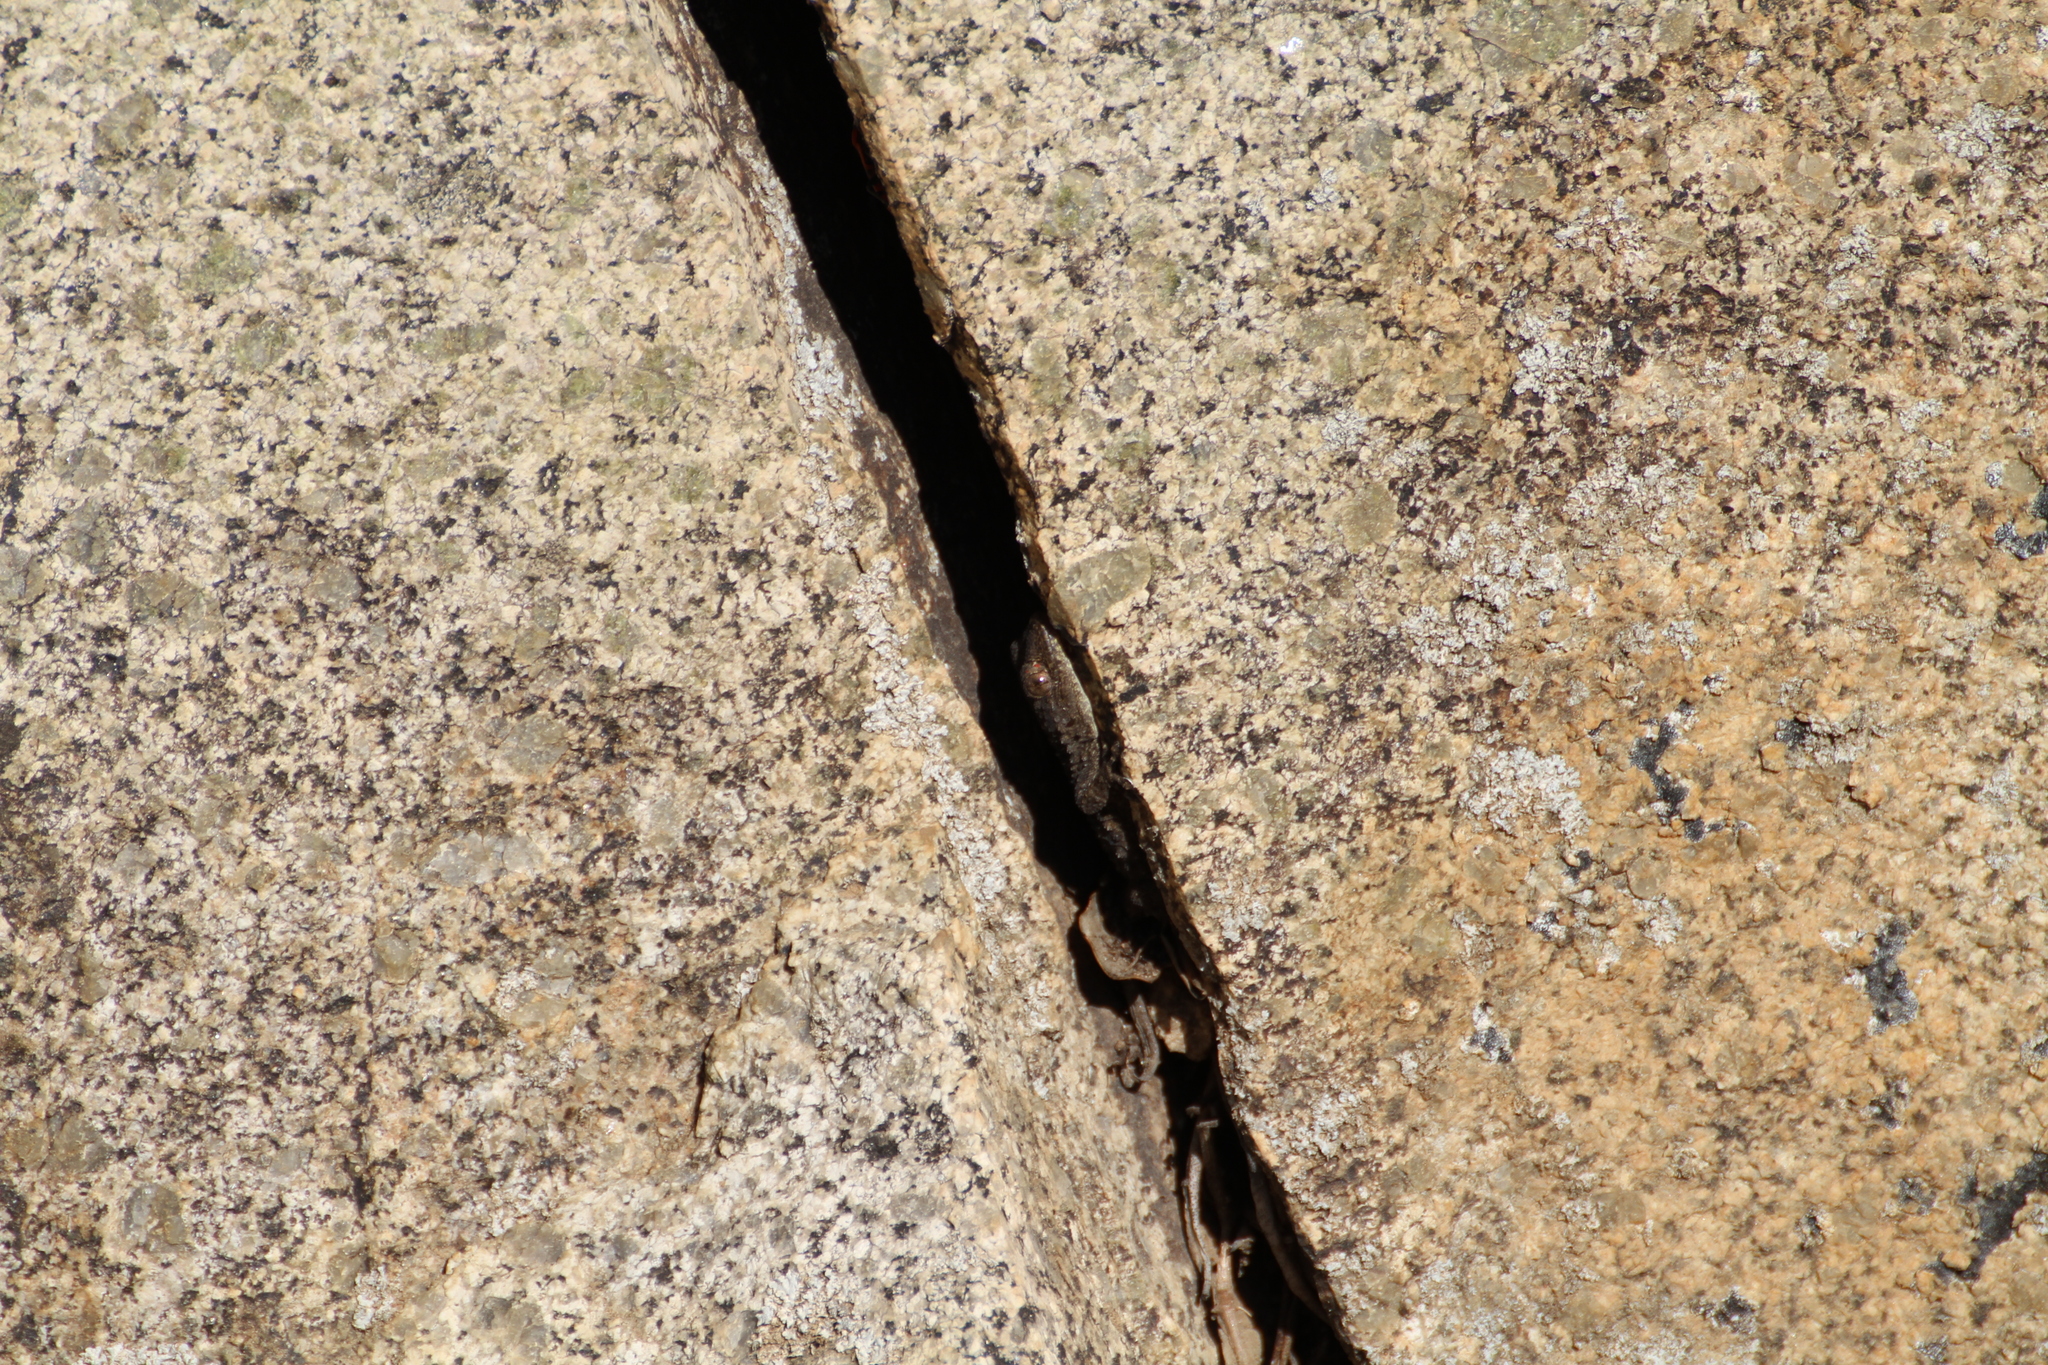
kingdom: Animalia
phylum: Chordata
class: Squamata
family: Phyllodactylidae
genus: Tarentola
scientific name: Tarentola mauritanica
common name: Moorish gecko
